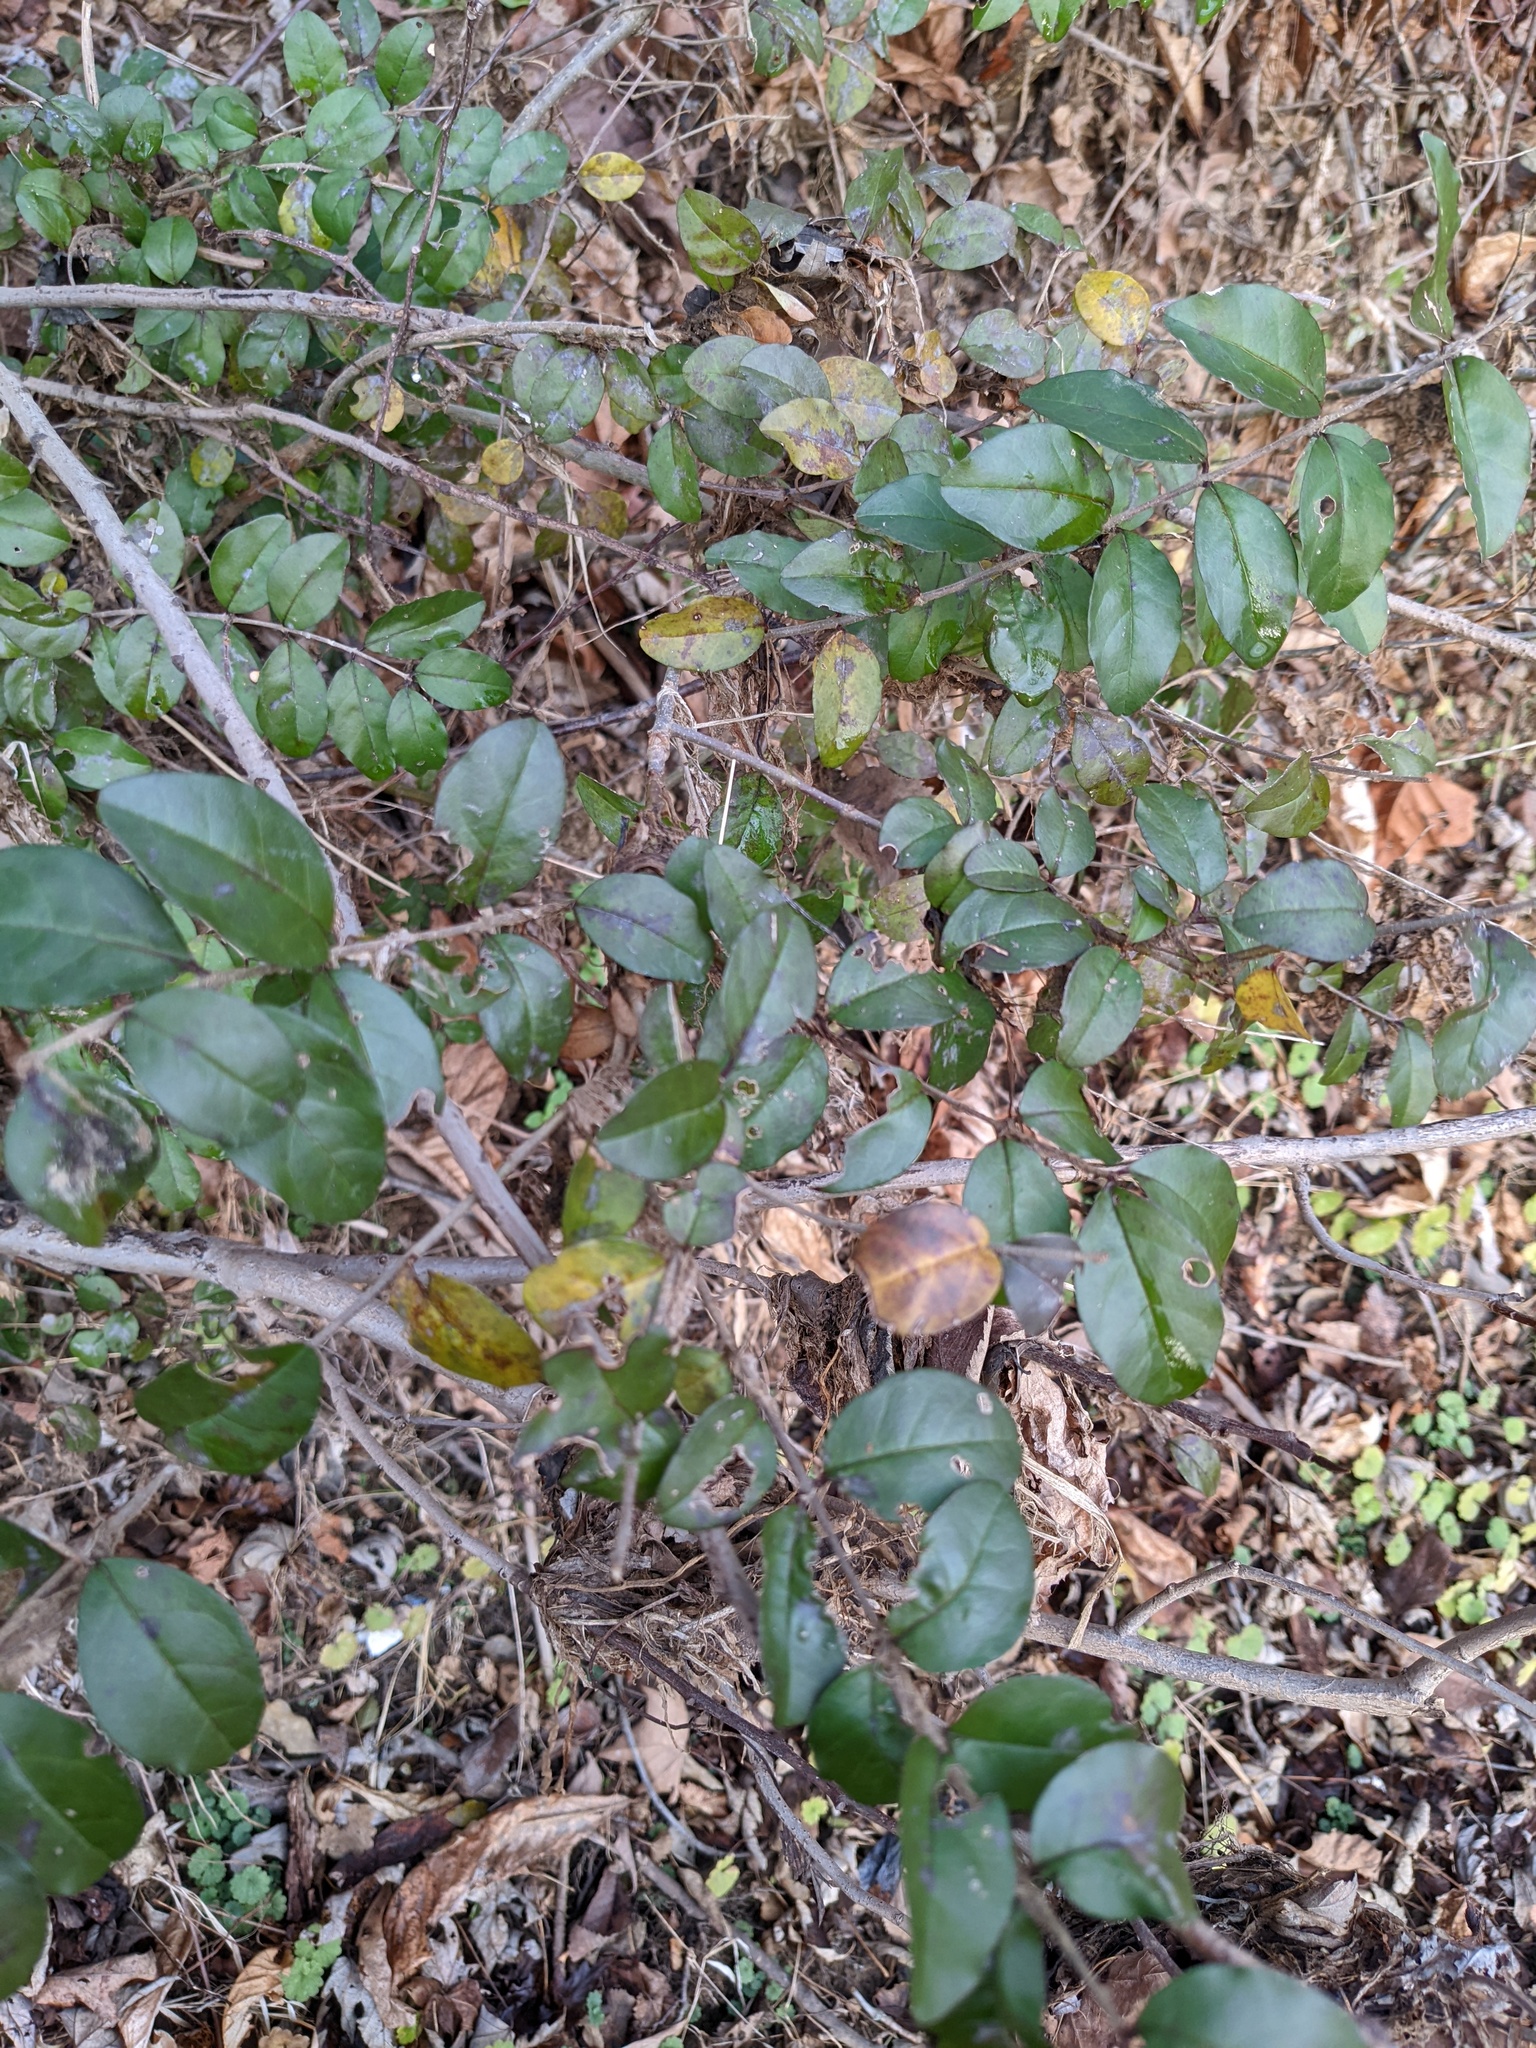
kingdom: Plantae
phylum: Tracheophyta
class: Magnoliopsida
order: Lamiales
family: Oleaceae
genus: Ligustrum
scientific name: Ligustrum sinense
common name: Chinese privet
